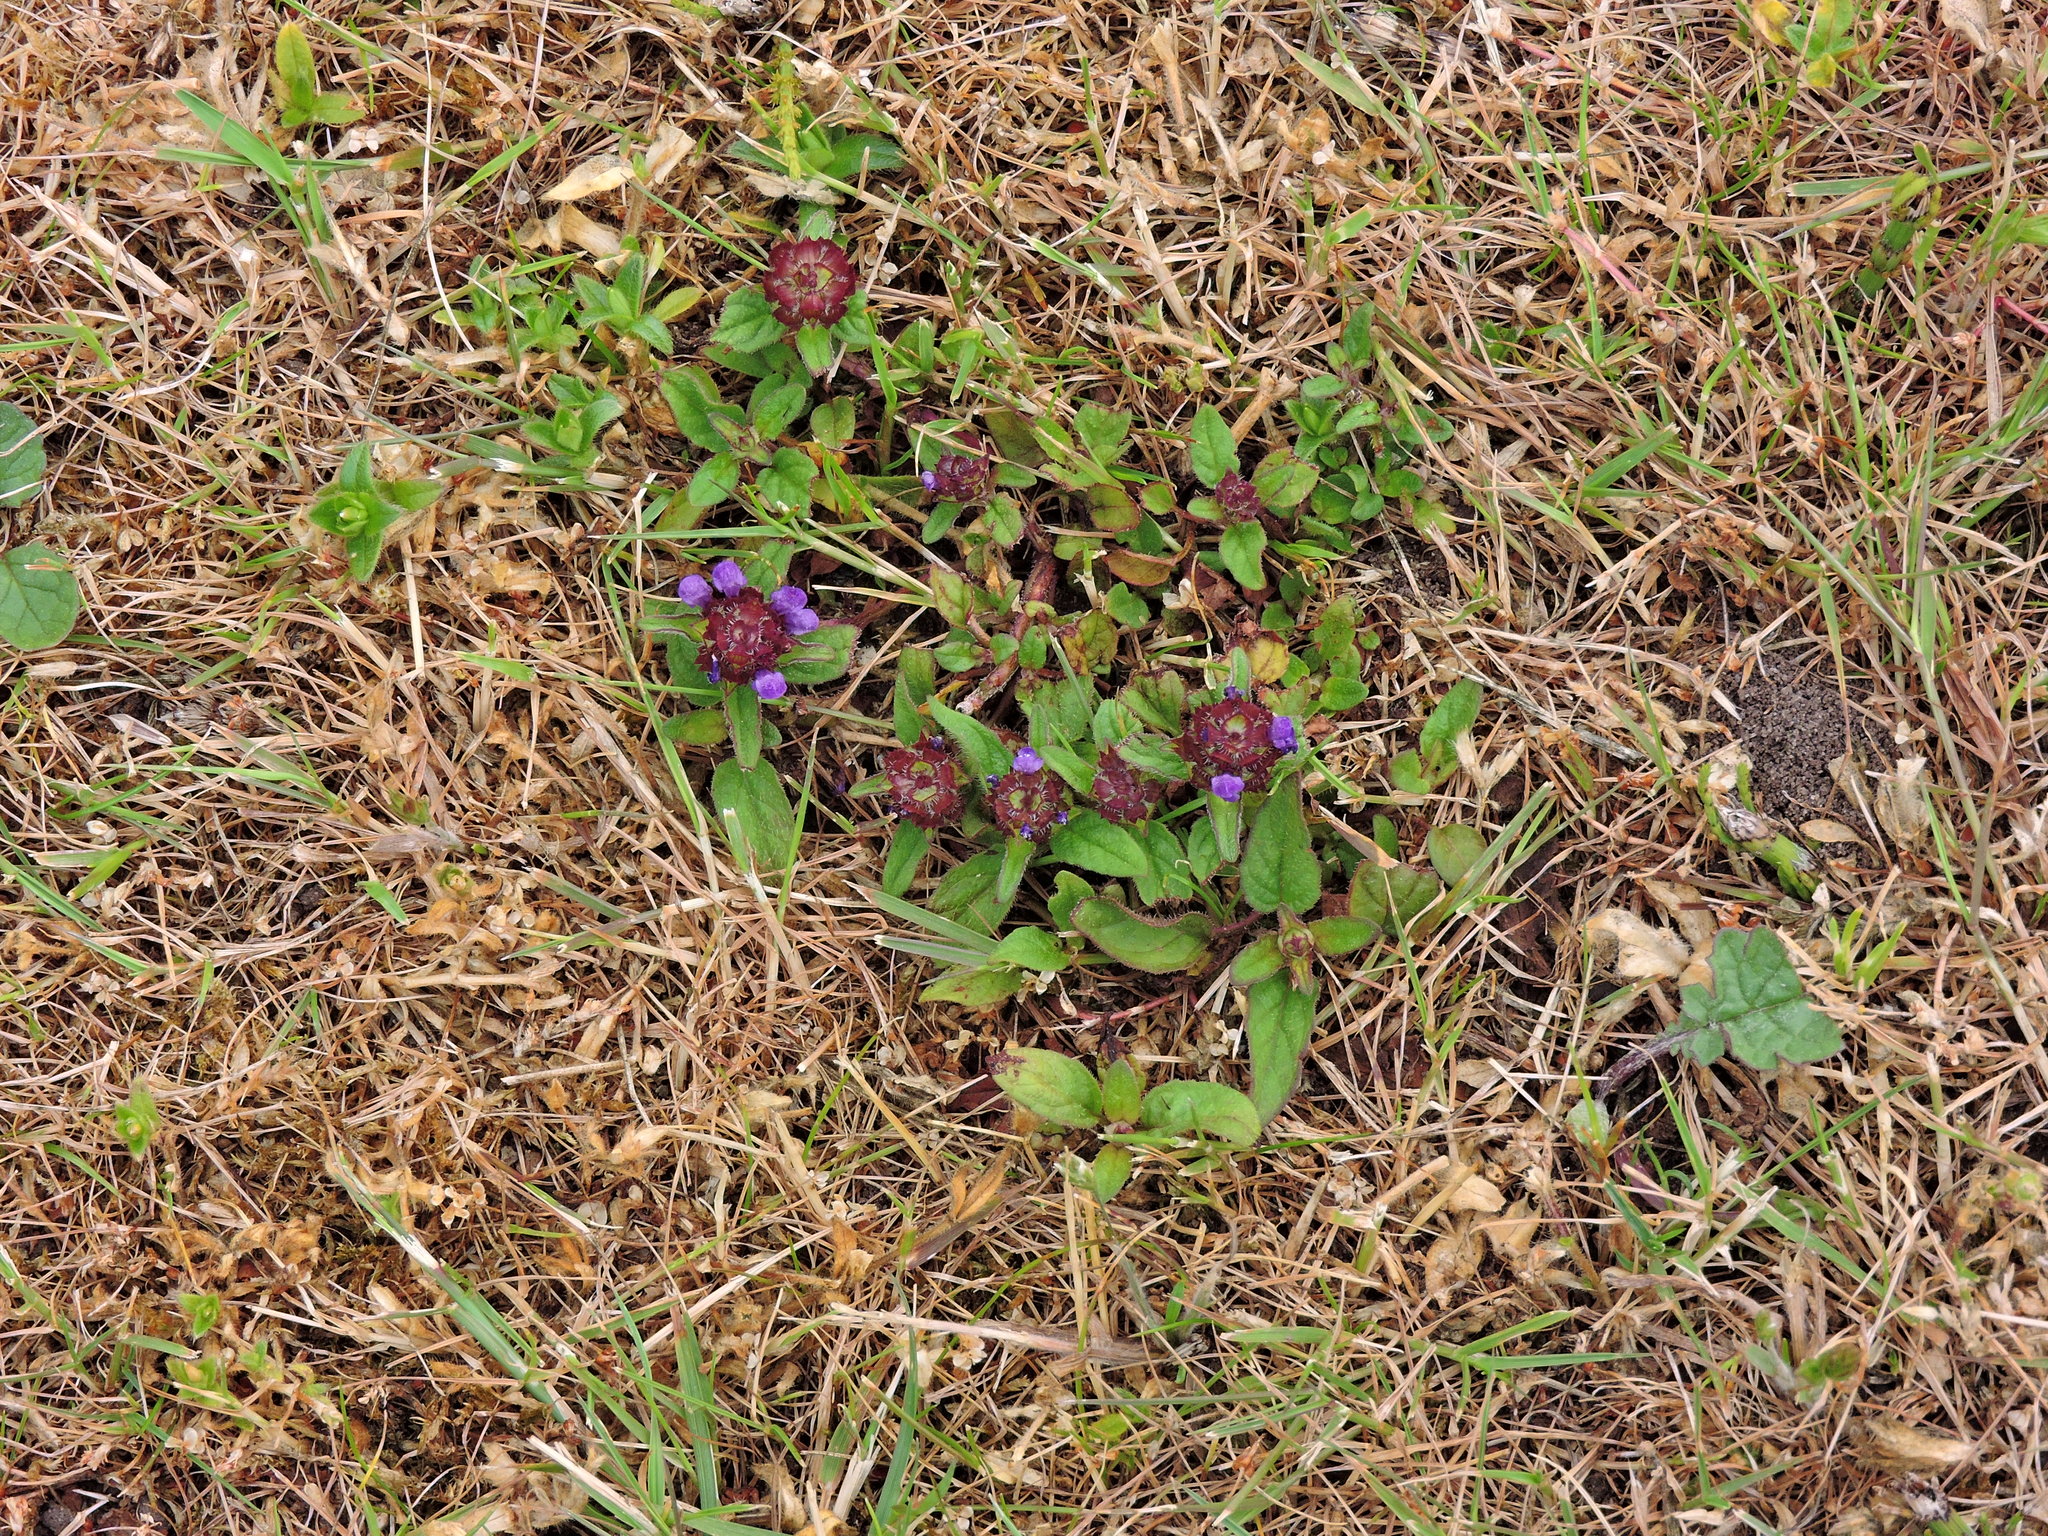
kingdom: Plantae
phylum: Tracheophyta
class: Magnoliopsida
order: Lamiales
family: Lamiaceae
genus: Prunella
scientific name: Prunella vulgaris
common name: Heal-all
